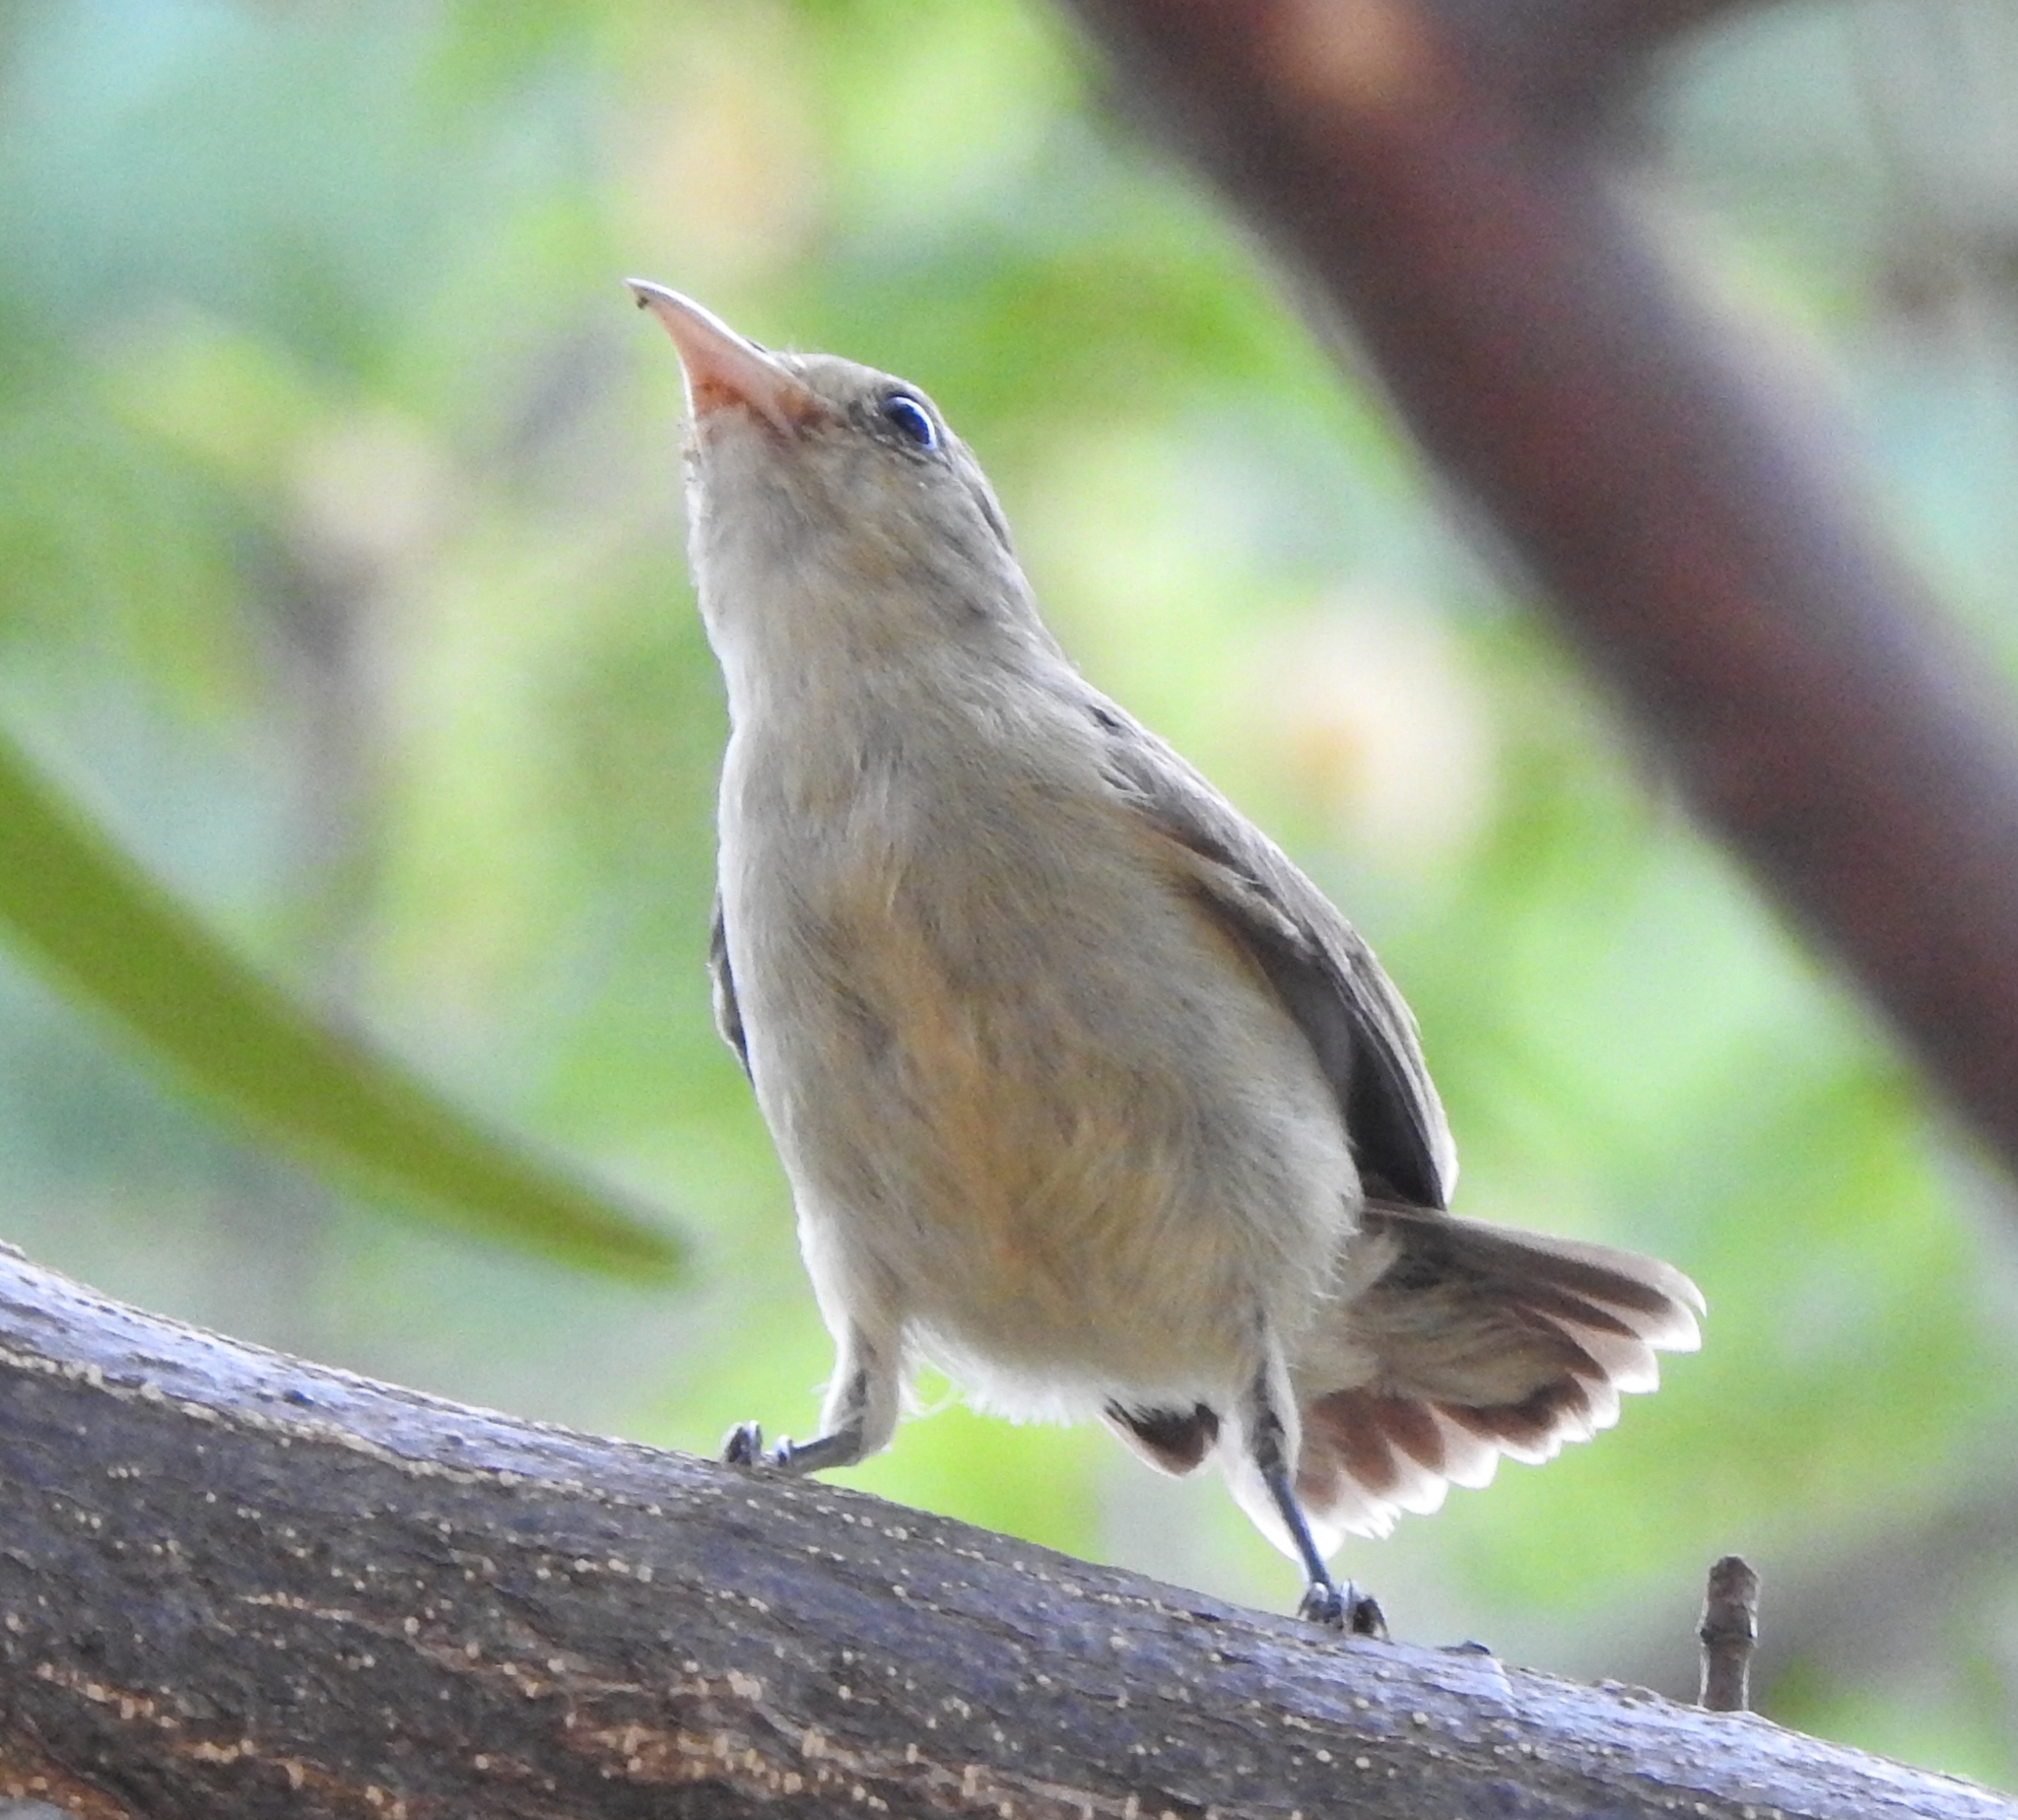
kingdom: Animalia
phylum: Chordata
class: Aves
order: Passeriformes
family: Dicaeidae
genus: Dicaeum
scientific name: Dicaeum erythrorhynchos
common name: Pale-billed flowerpecker
